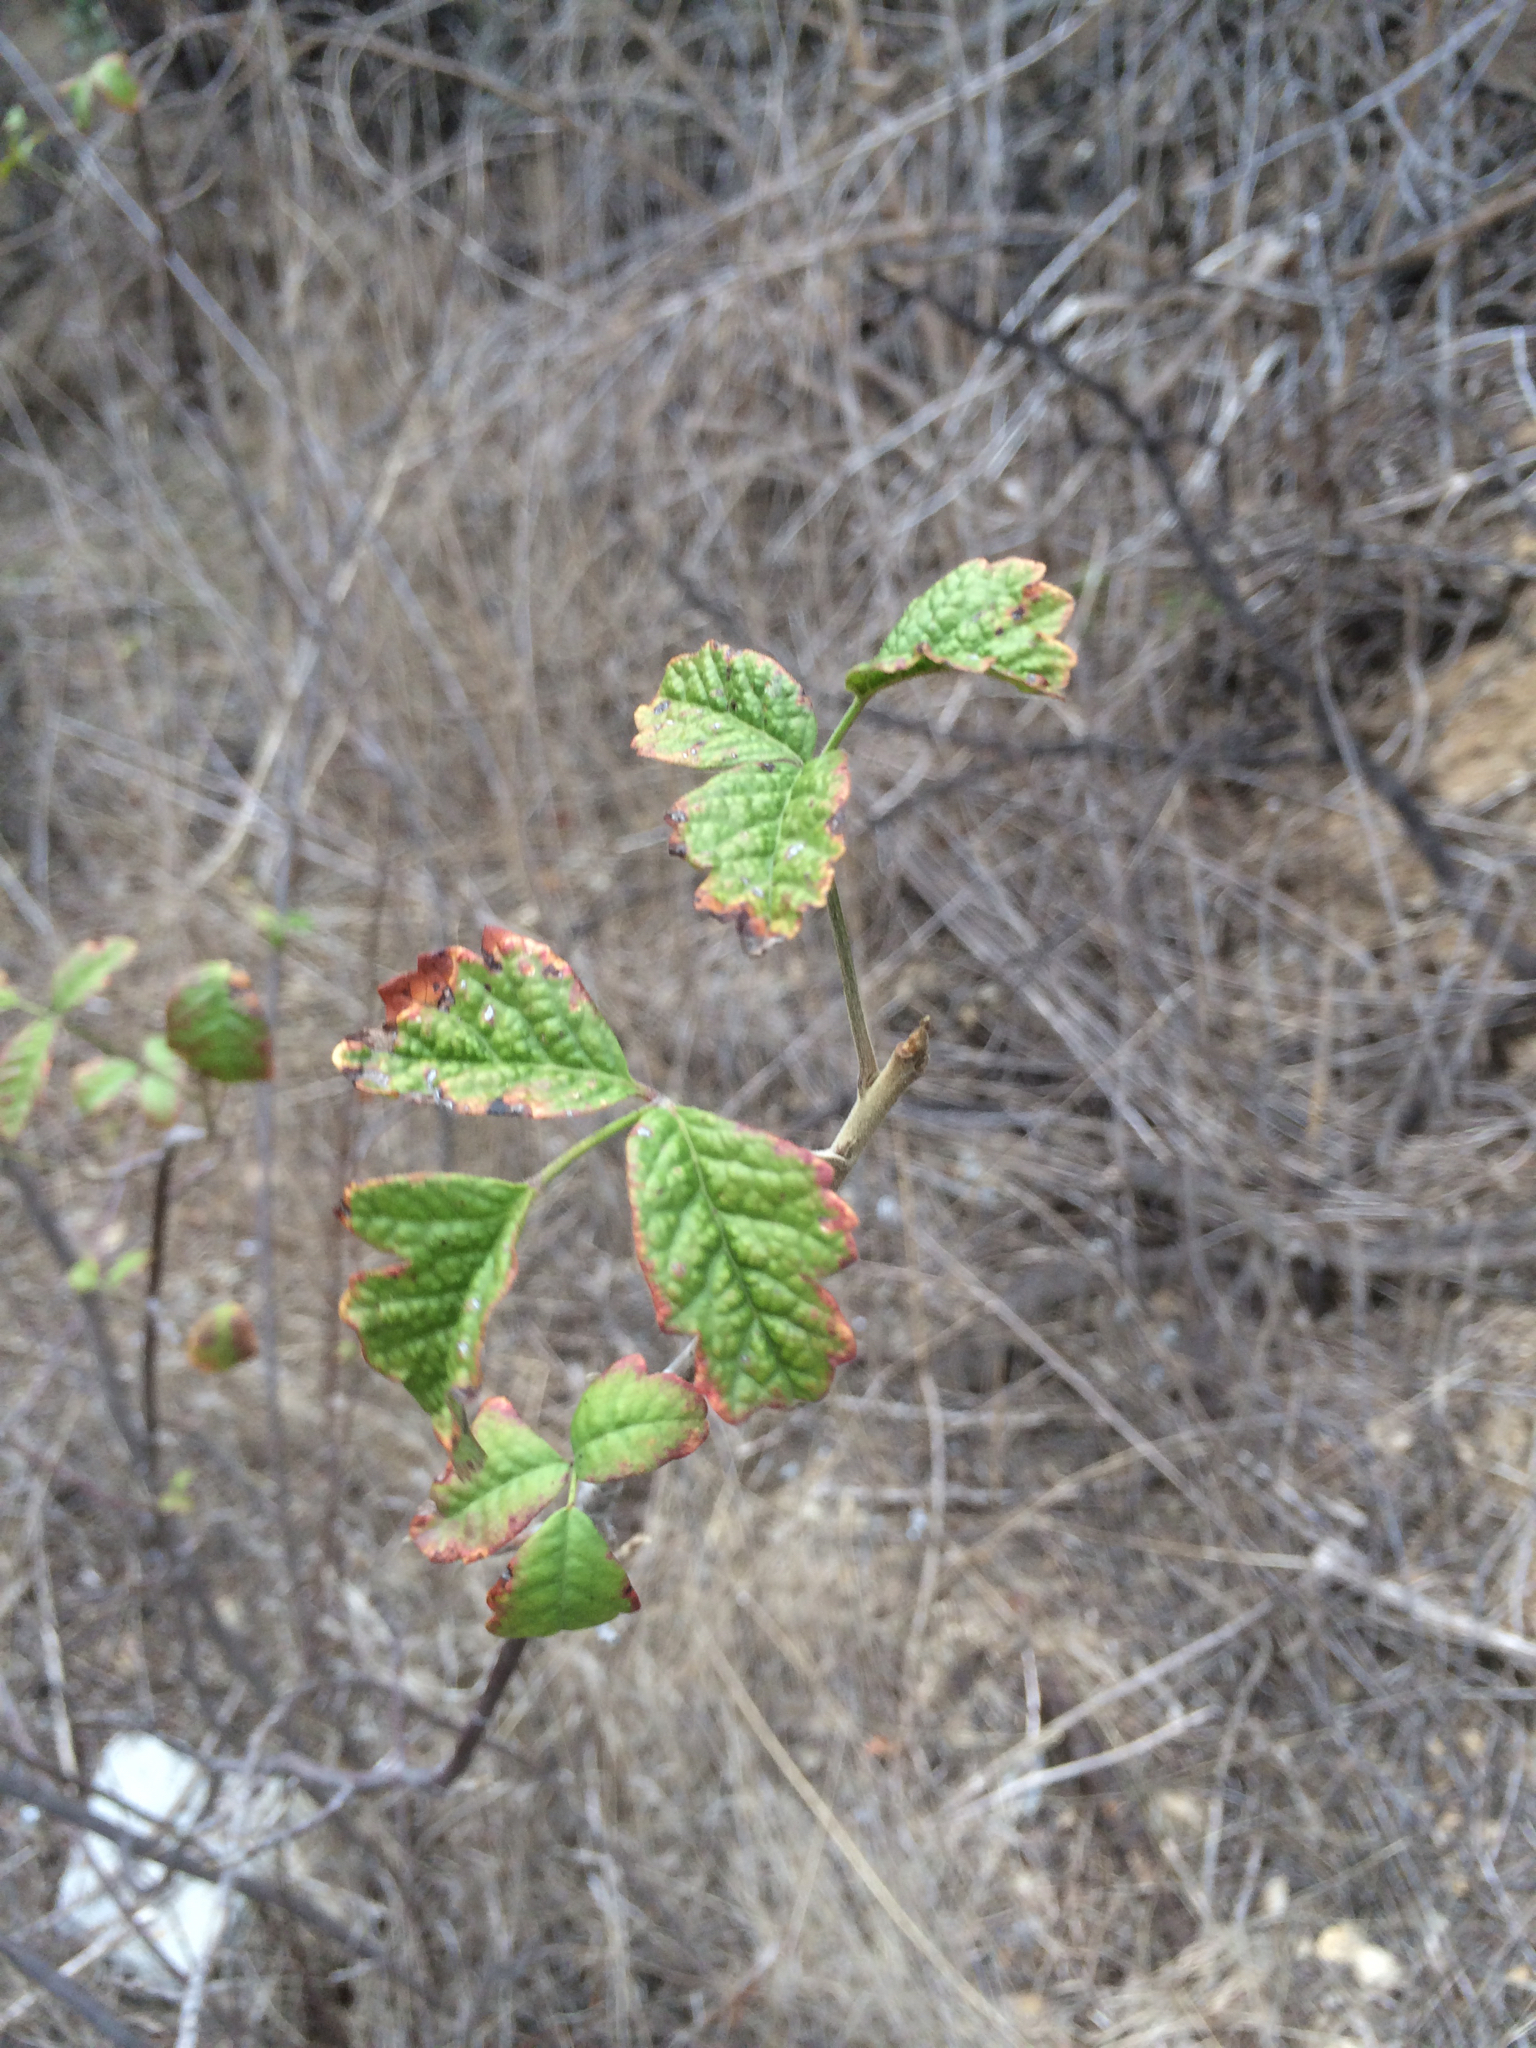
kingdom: Plantae
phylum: Tracheophyta
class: Magnoliopsida
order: Sapindales
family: Anacardiaceae
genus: Toxicodendron
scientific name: Toxicodendron diversilobum
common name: Pacific poison-oak
